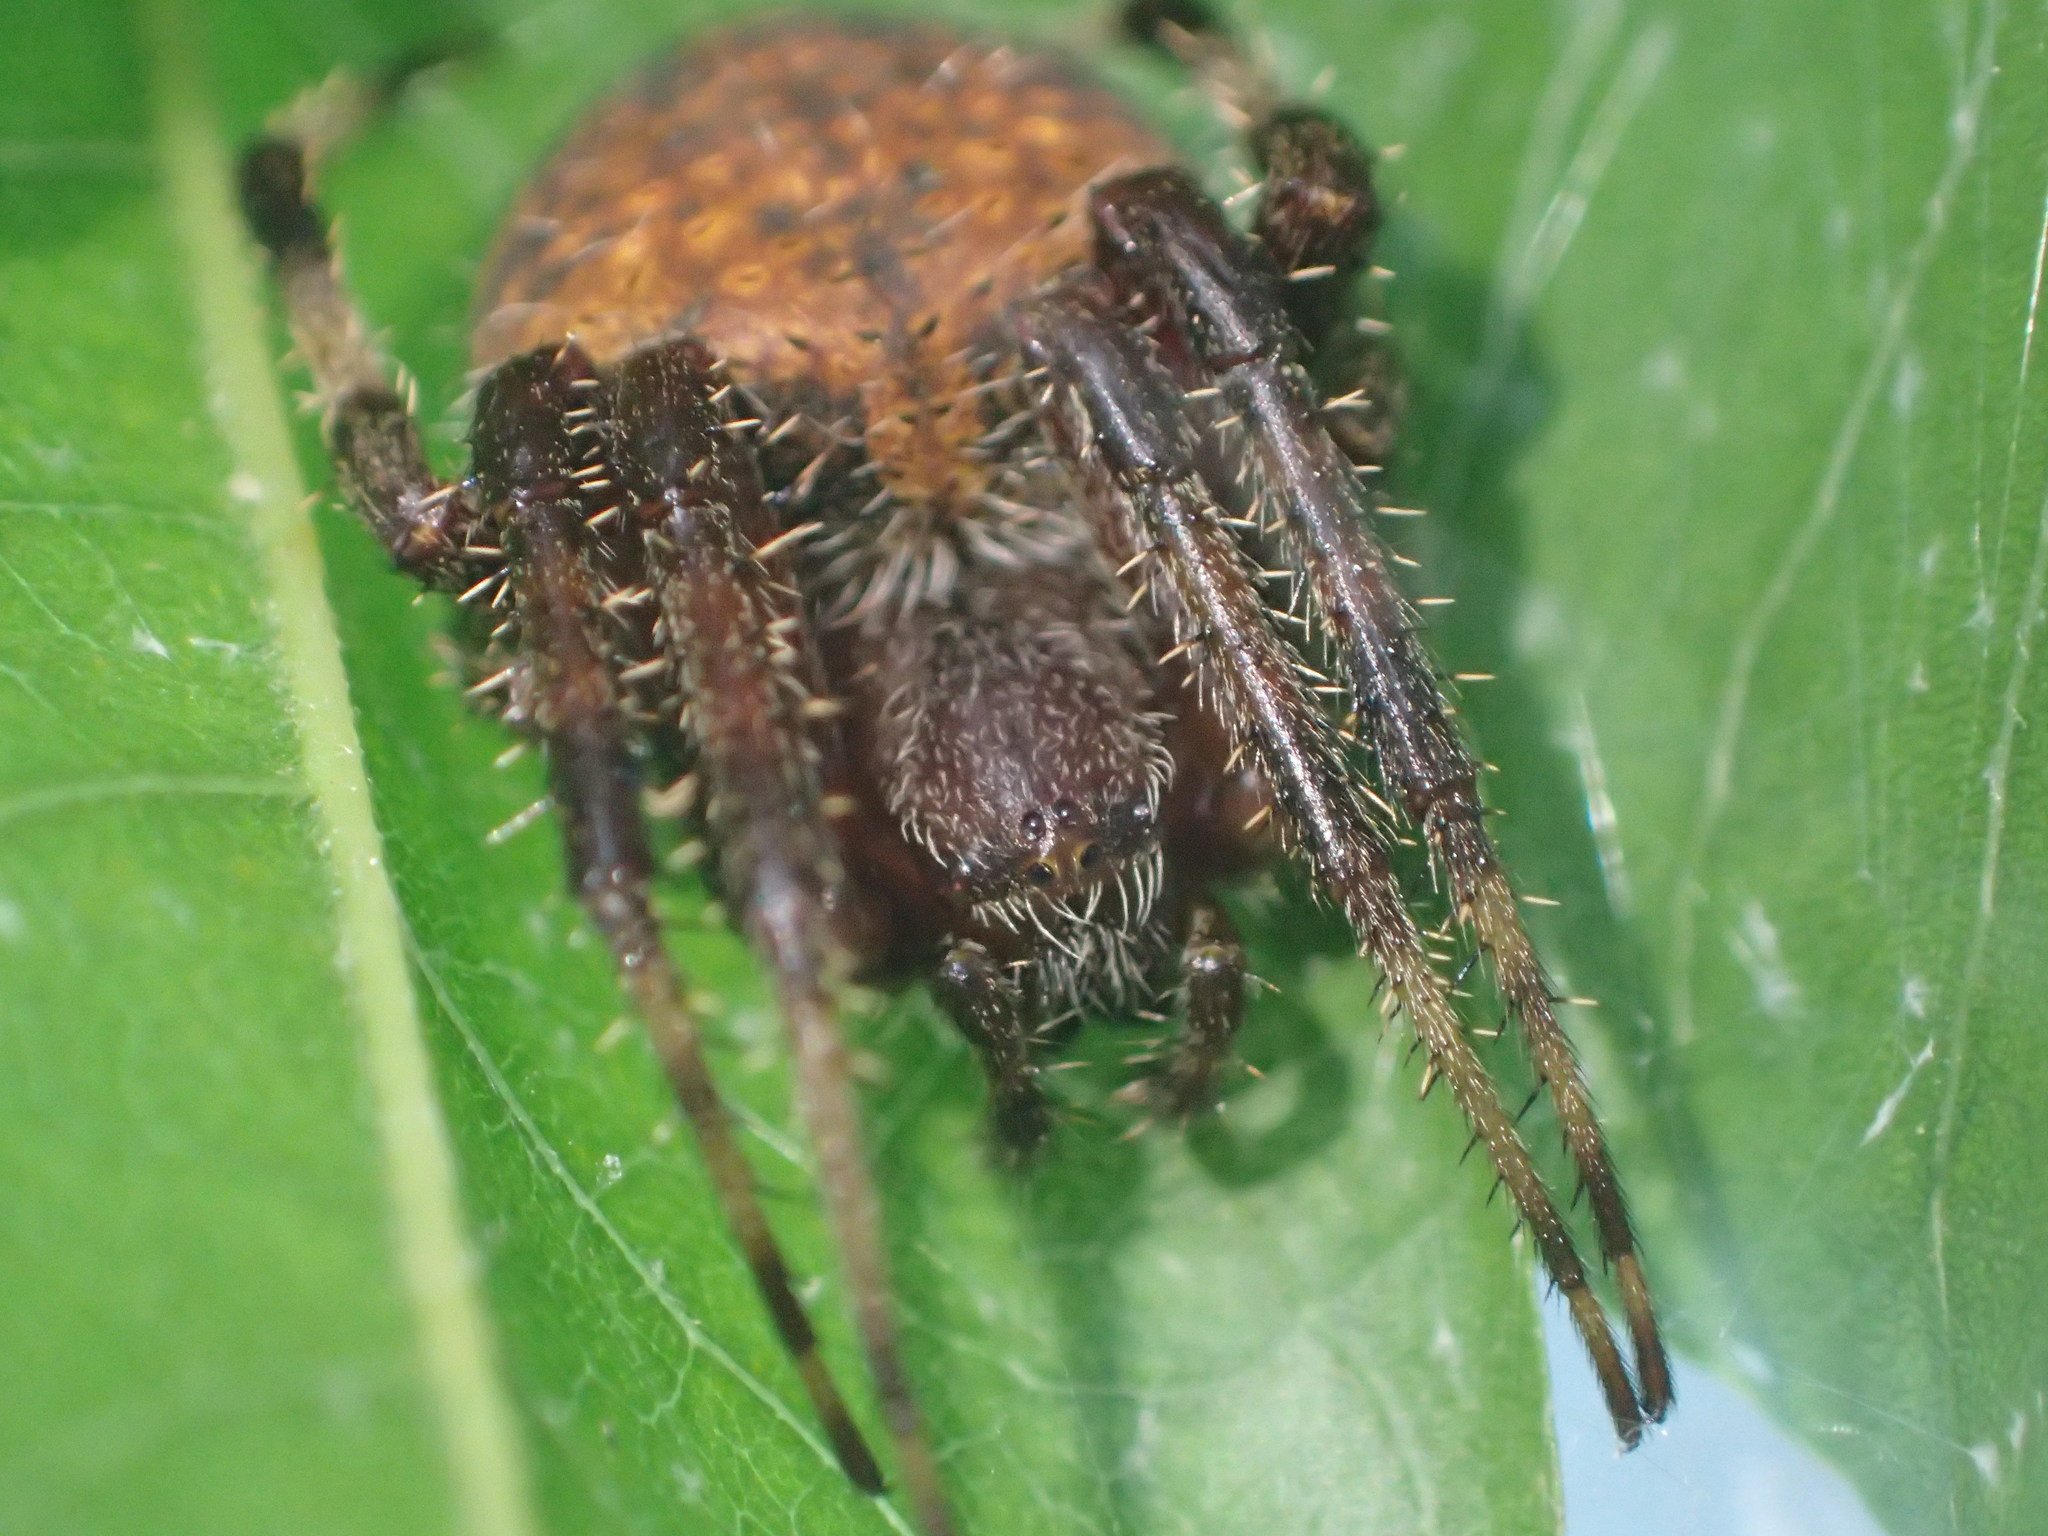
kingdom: Animalia
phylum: Arthropoda
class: Arachnida
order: Araneae
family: Araneidae
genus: Neoscona
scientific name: Neoscona crucifera
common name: Spotted orbweaver
